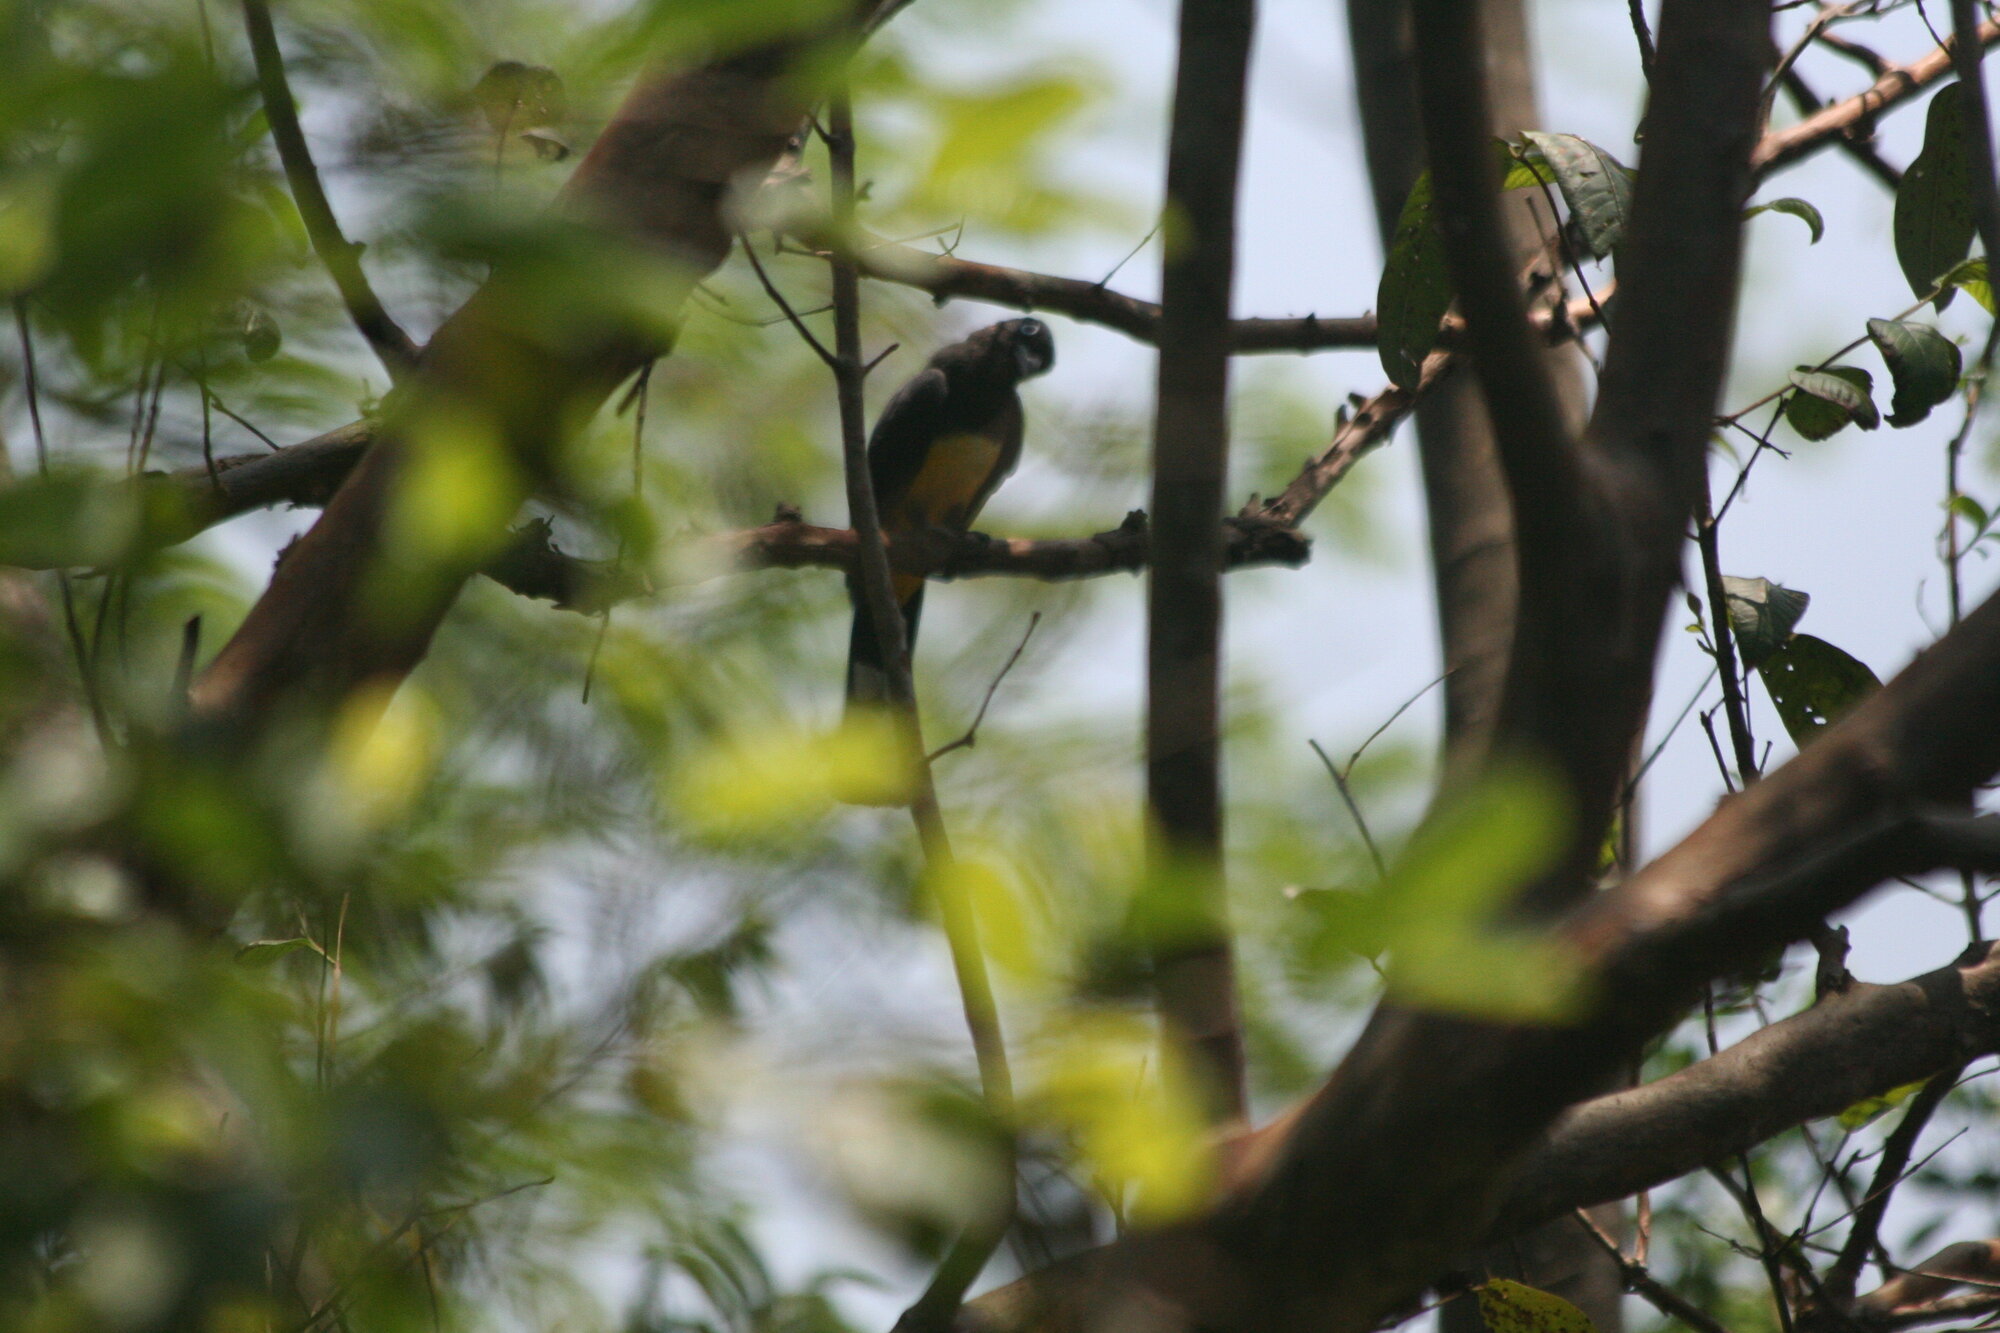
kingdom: Animalia
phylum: Chordata
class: Aves
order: Trogoniformes
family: Trogonidae
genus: Trogon
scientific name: Trogon melanocephalus
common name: Black-headed trogon
